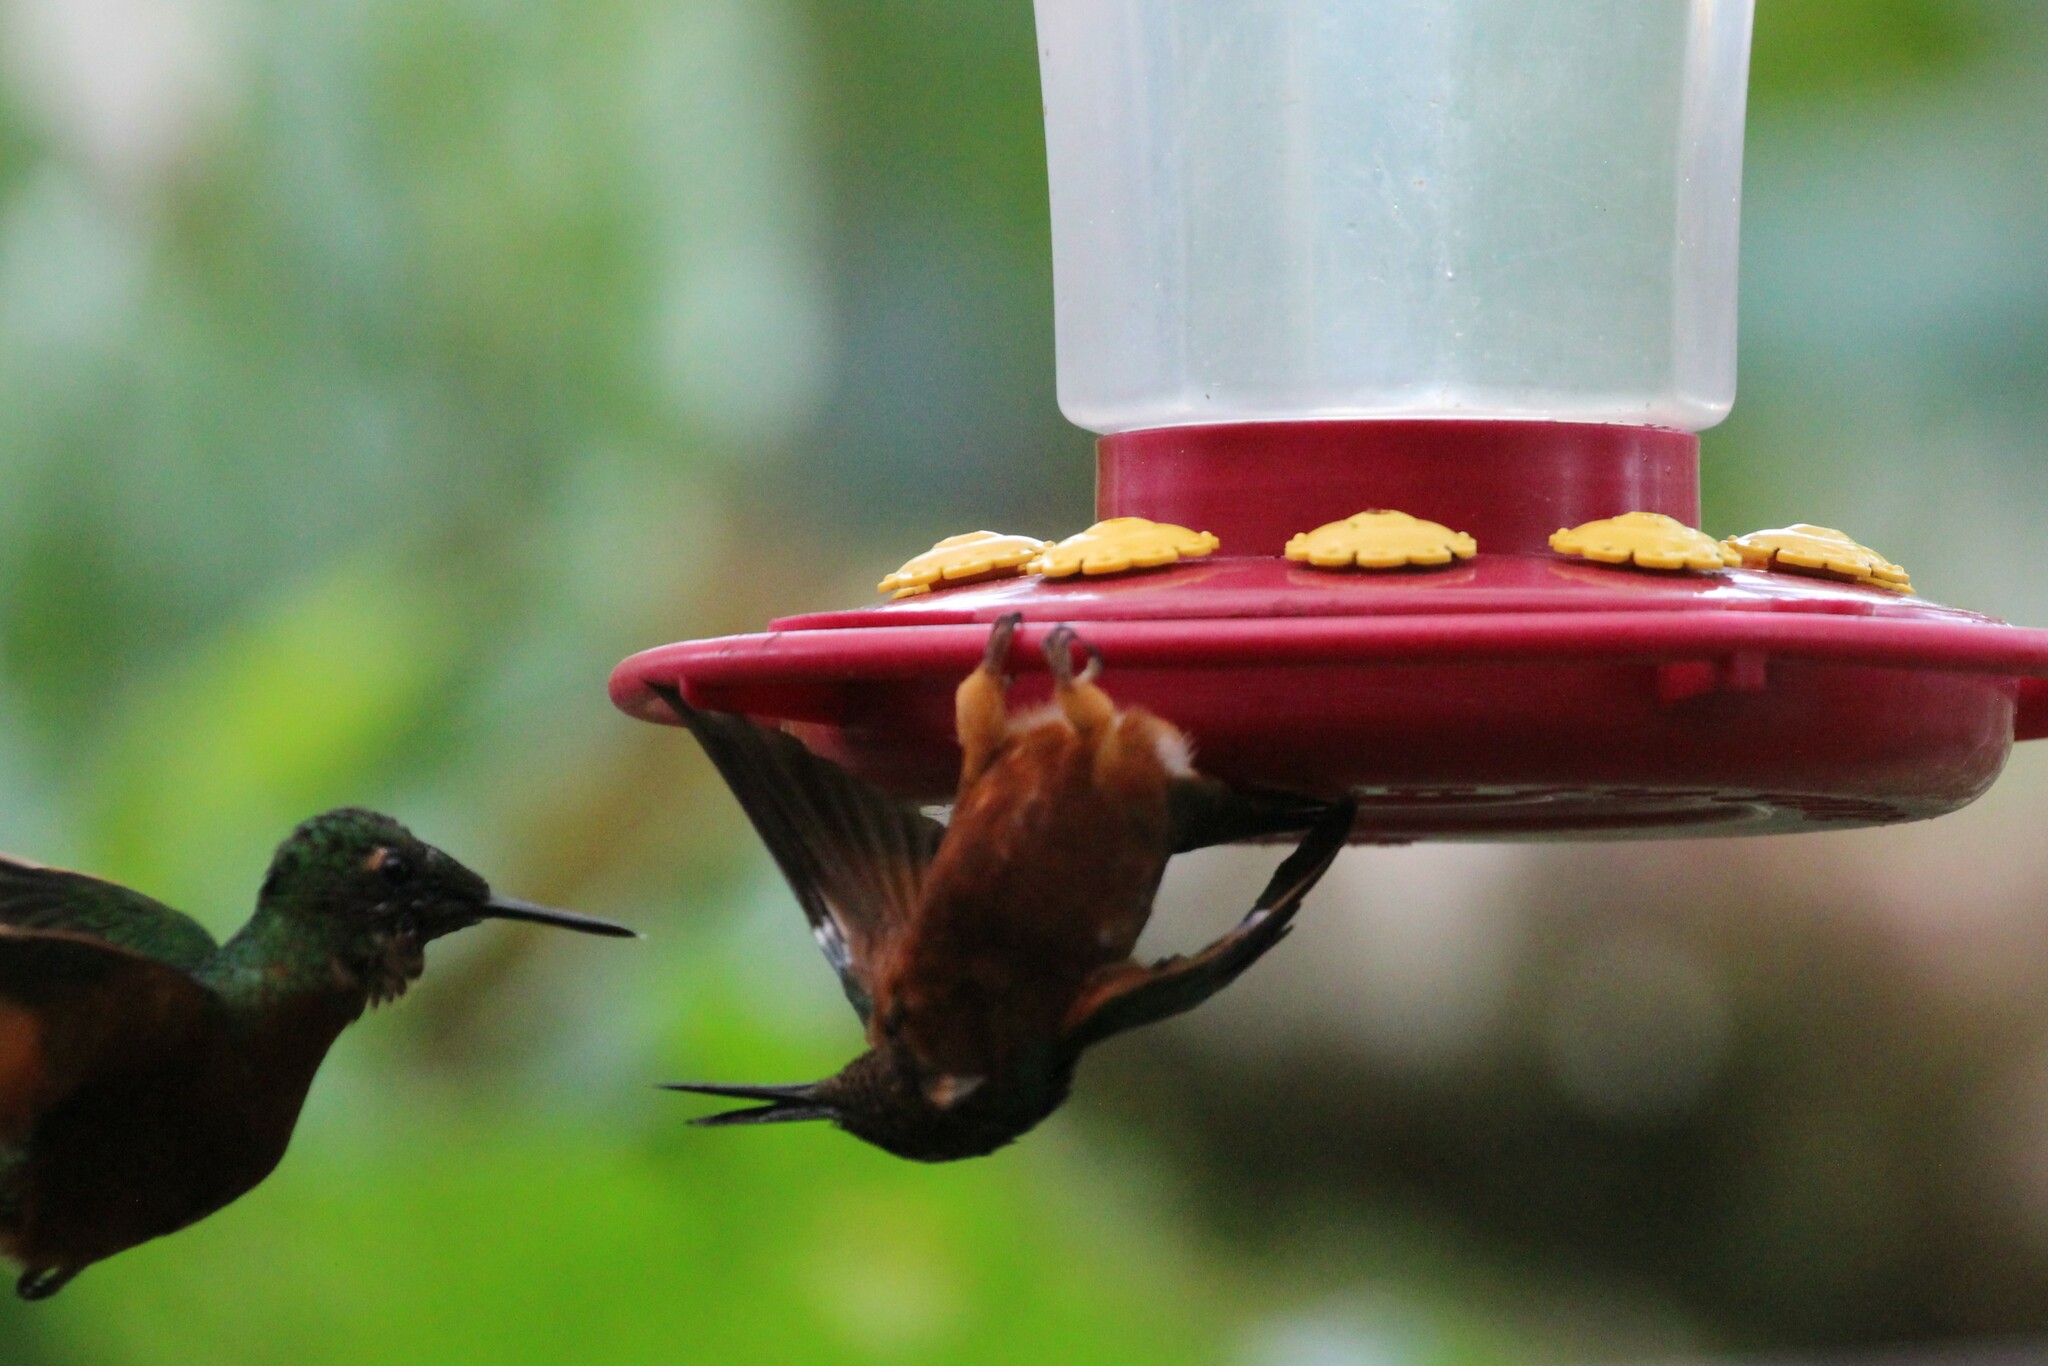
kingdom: Animalia
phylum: Chordata
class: Aves
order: Apodiformes
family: Trochilidae
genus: Boissonneaua
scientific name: Boissonneaua matthewsii
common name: Chestnut-breasted coronet
